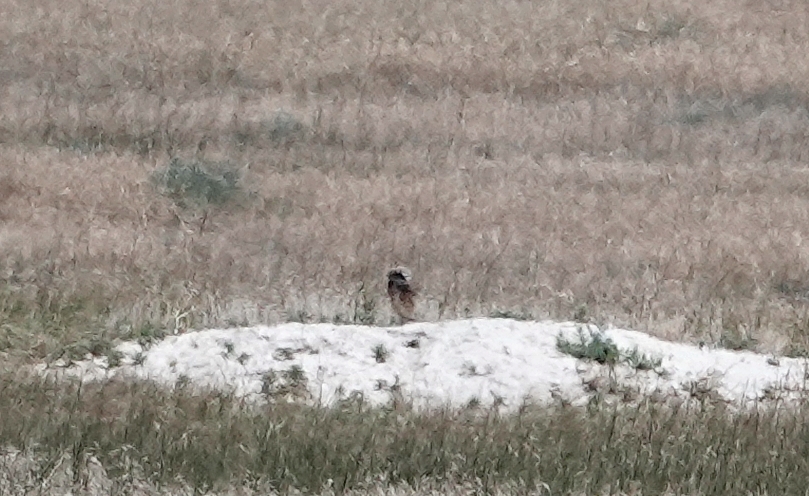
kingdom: Animalia
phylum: Chordata
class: Aves
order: Strigiformes
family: Strigidae
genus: Athene
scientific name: Athene cunicularia
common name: Burrowing owl
